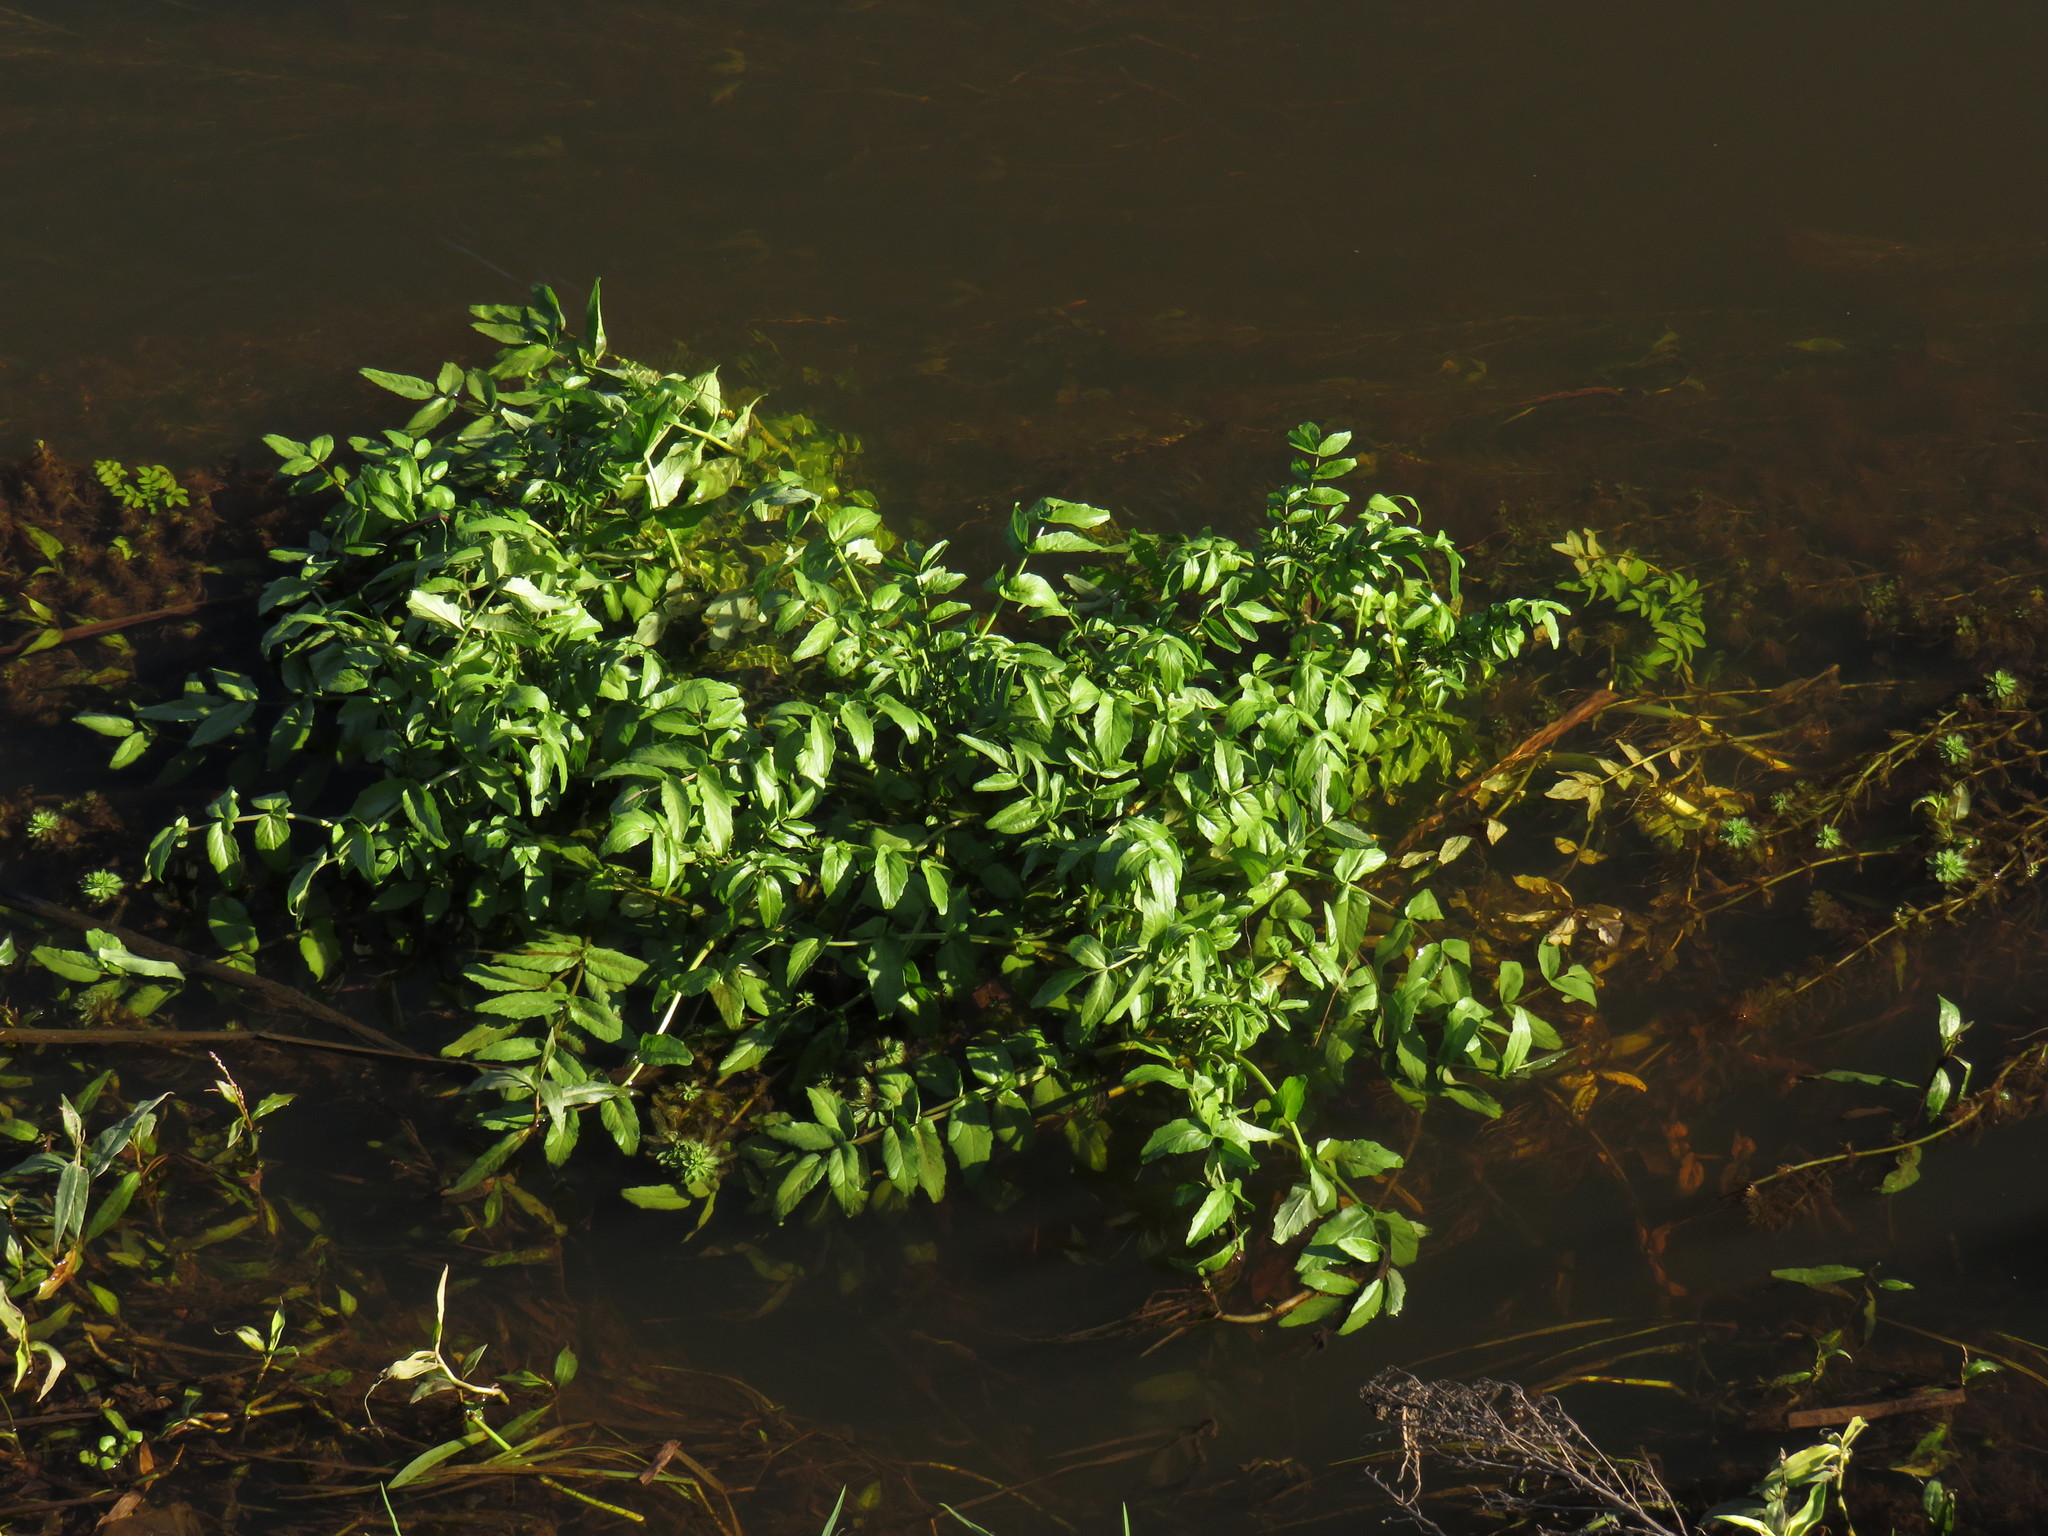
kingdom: Plantae
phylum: Tracheophyta
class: Magnoliopsida
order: Brassicales
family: Brassicaceae
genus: Nasturtium
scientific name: Nasturtium officinale
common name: Watercress
